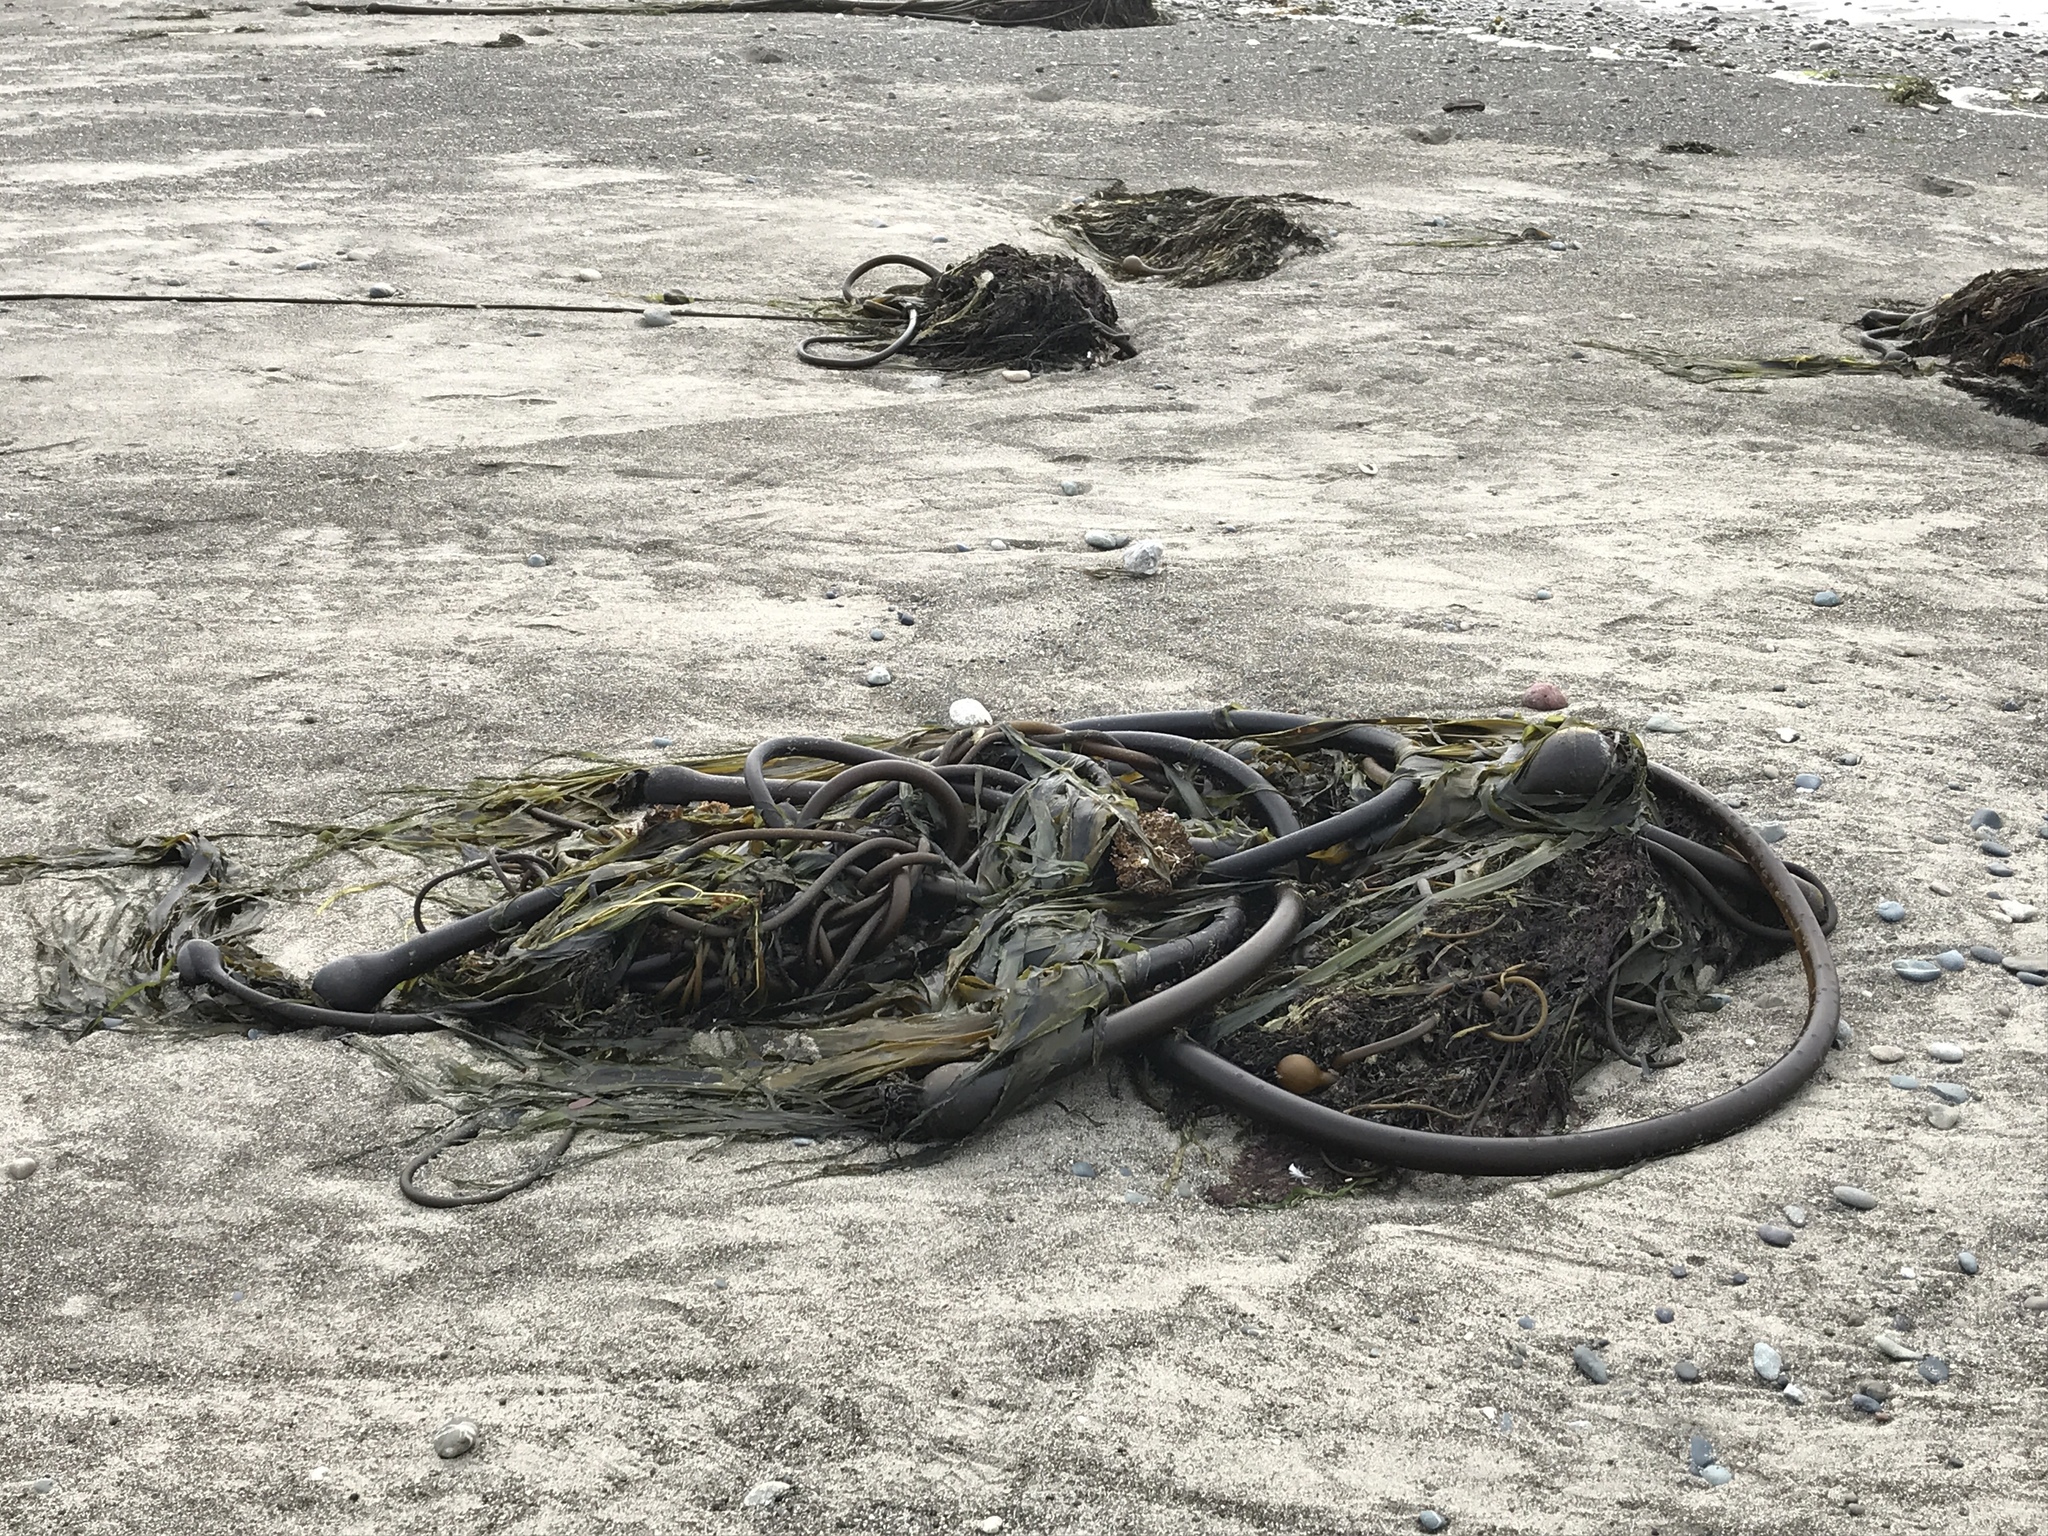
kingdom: Chromista
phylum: Ochrophyta
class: Phaeophyceae
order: Laminariales
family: Laminariaceae
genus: Nereocystis
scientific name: Nereocystis luetkeana
